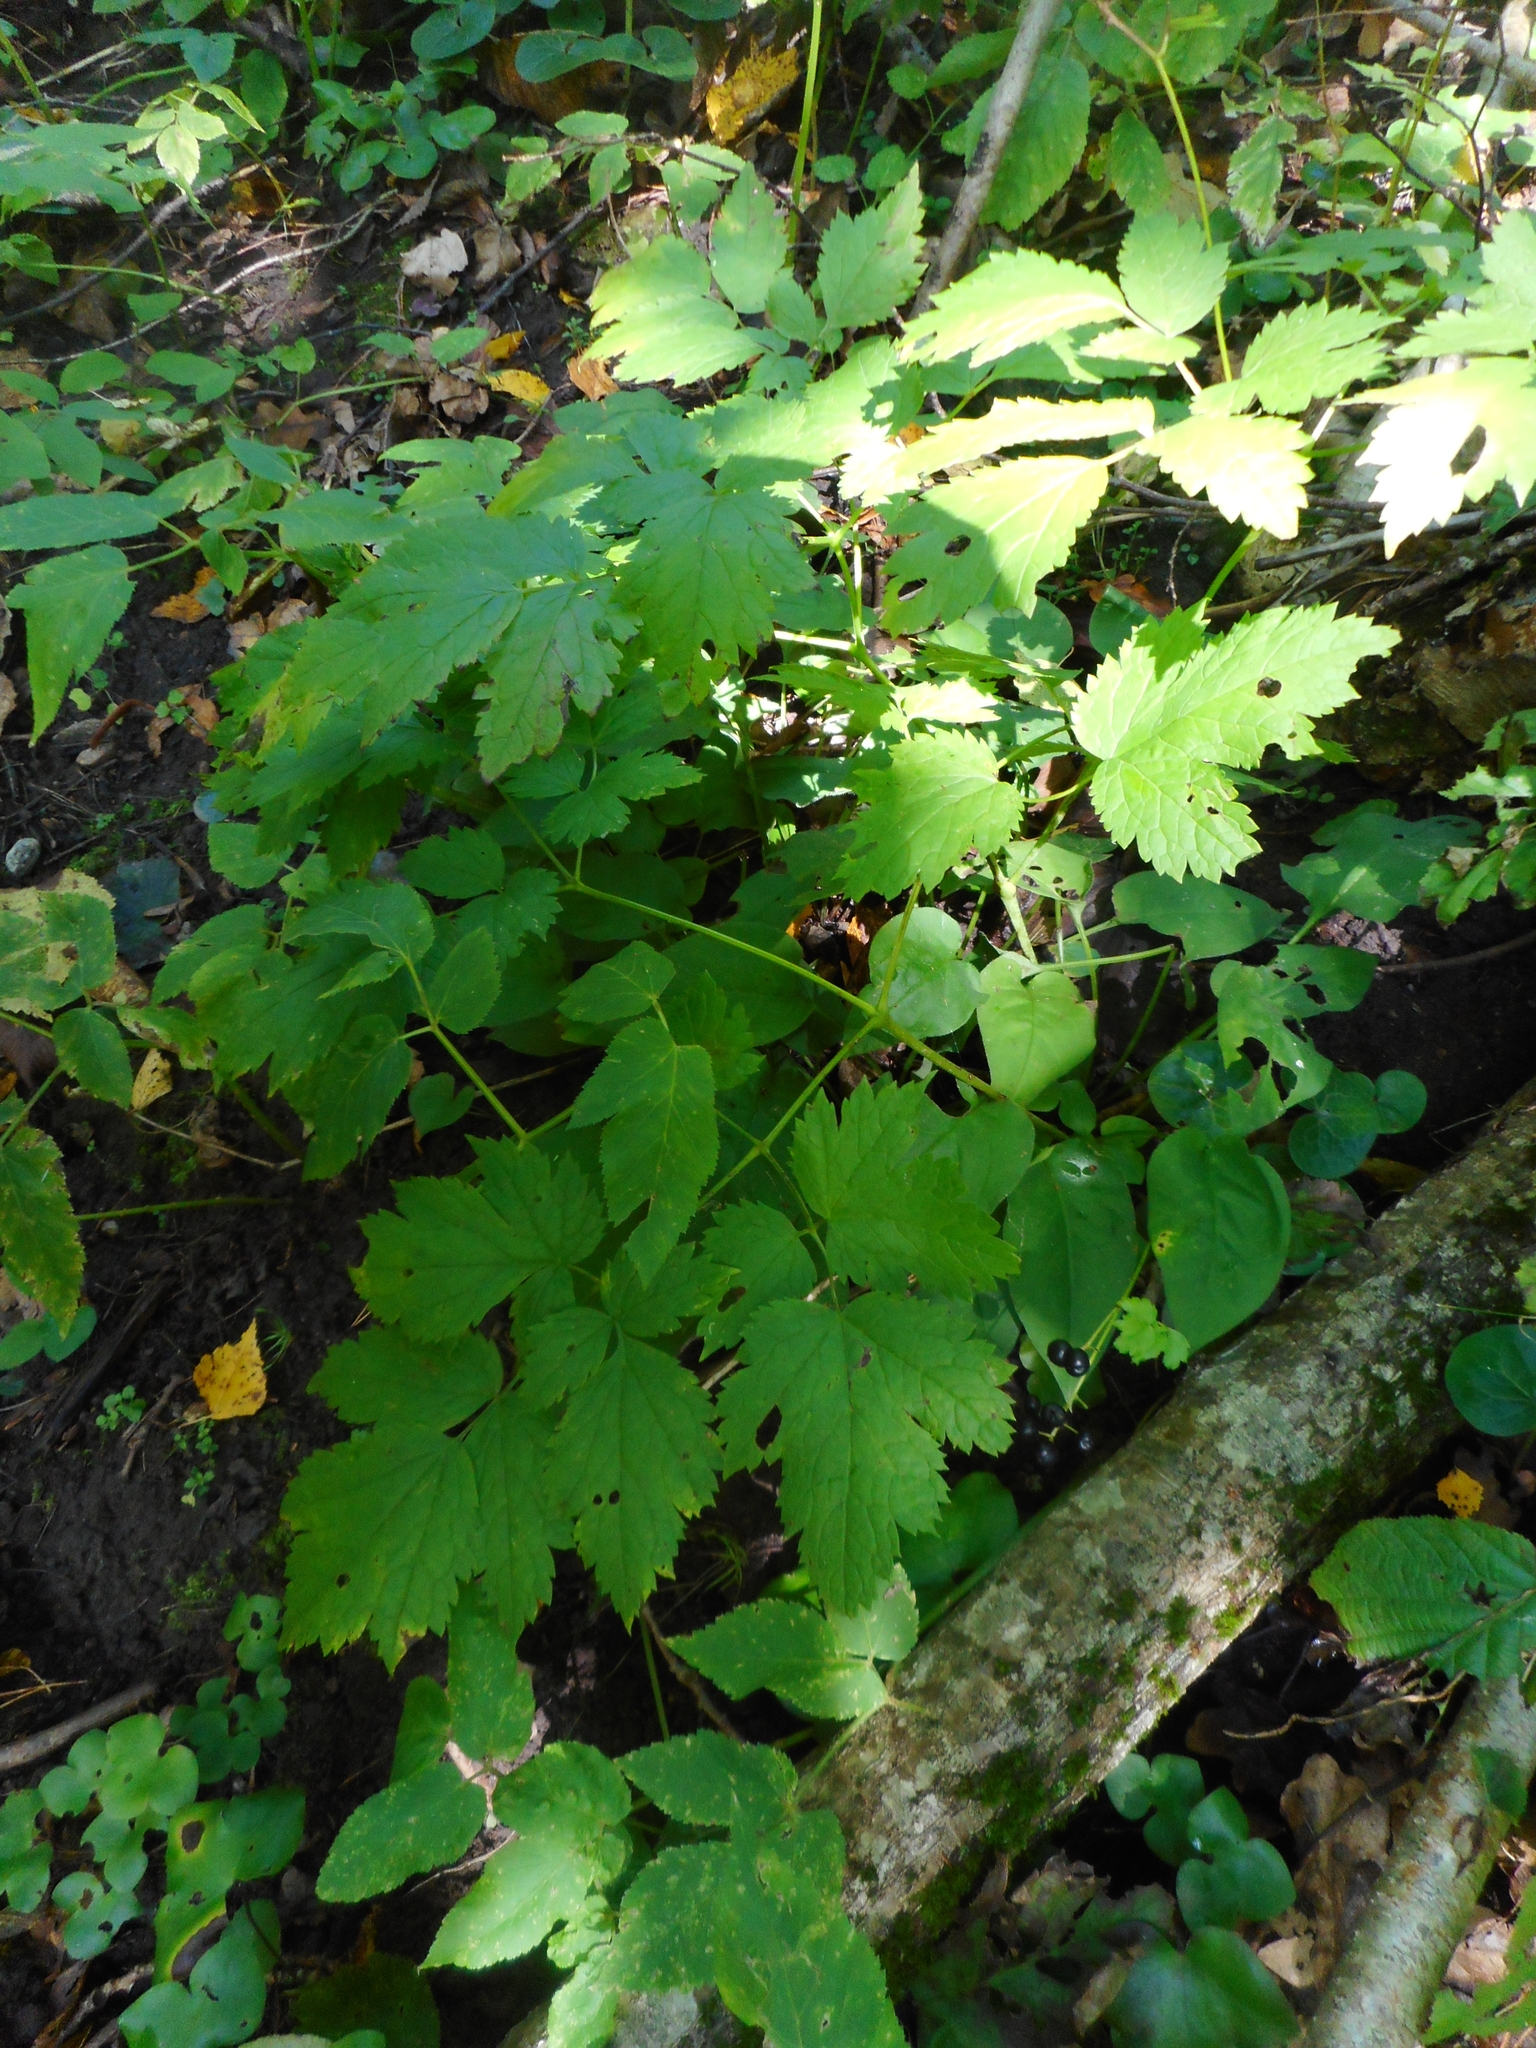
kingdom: Plantae
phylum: Tracheophyta
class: Magnoliopsida
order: Ranunculales
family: Ranunculaceae
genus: Actaea
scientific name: Actaea spicata
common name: Baneberry
